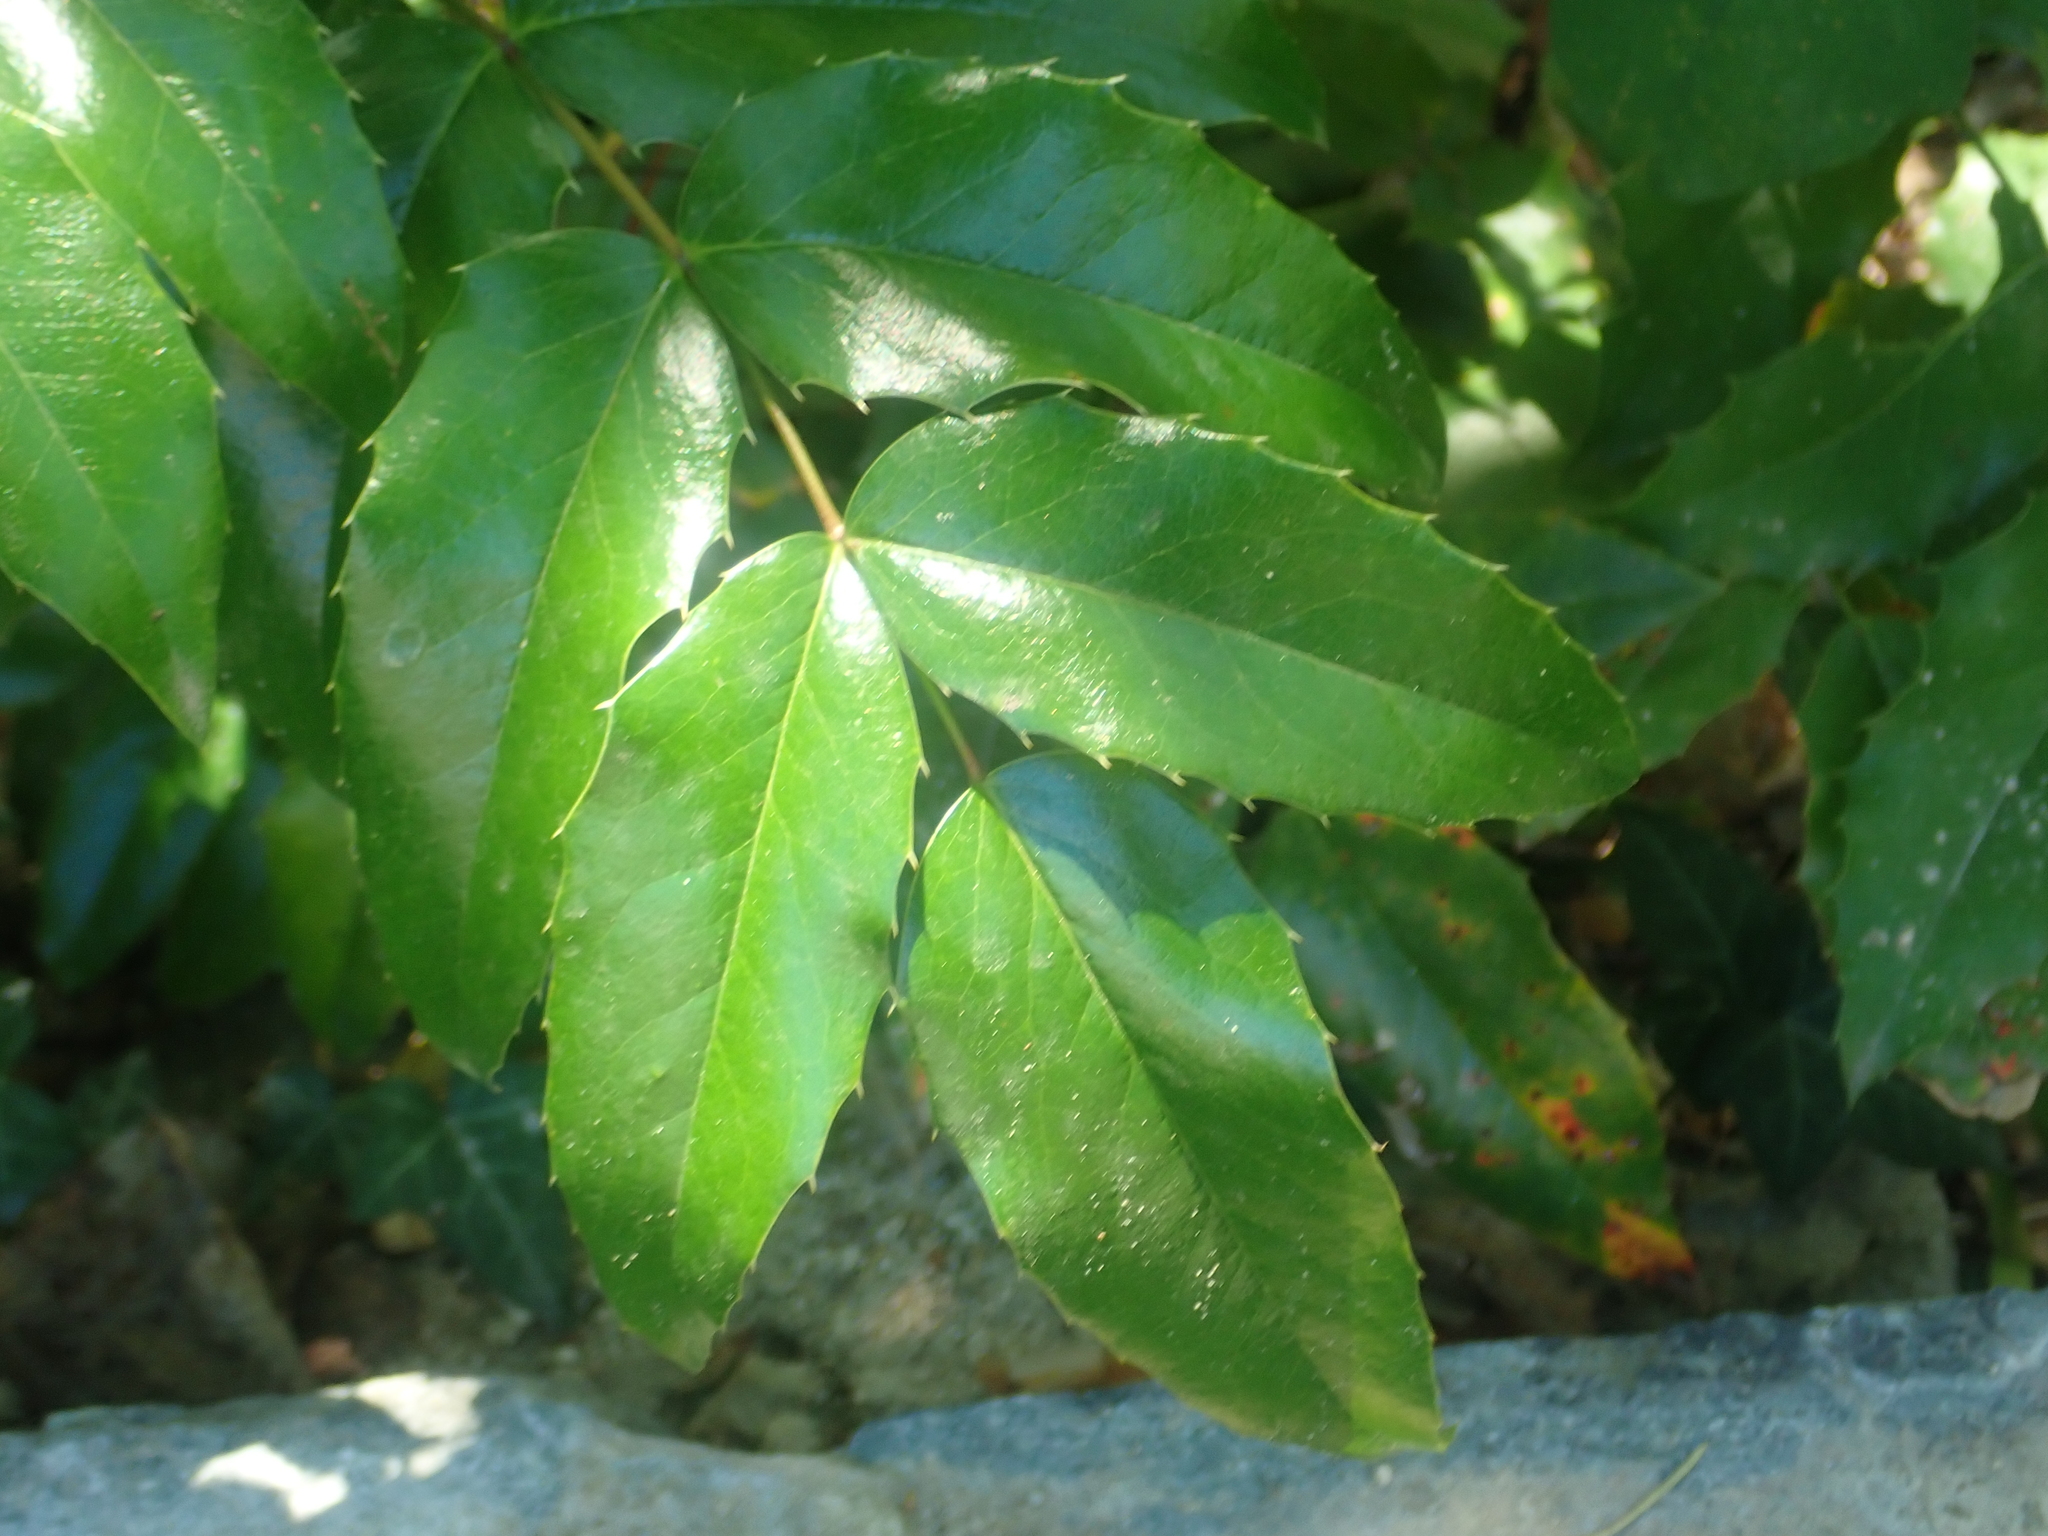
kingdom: Plantae
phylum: Tracheophyta
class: Magnoliopsida
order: Ranunculales
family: Berberidaceae
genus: Mahonia
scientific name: Mahonia aquifolium
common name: Oregon-grape
